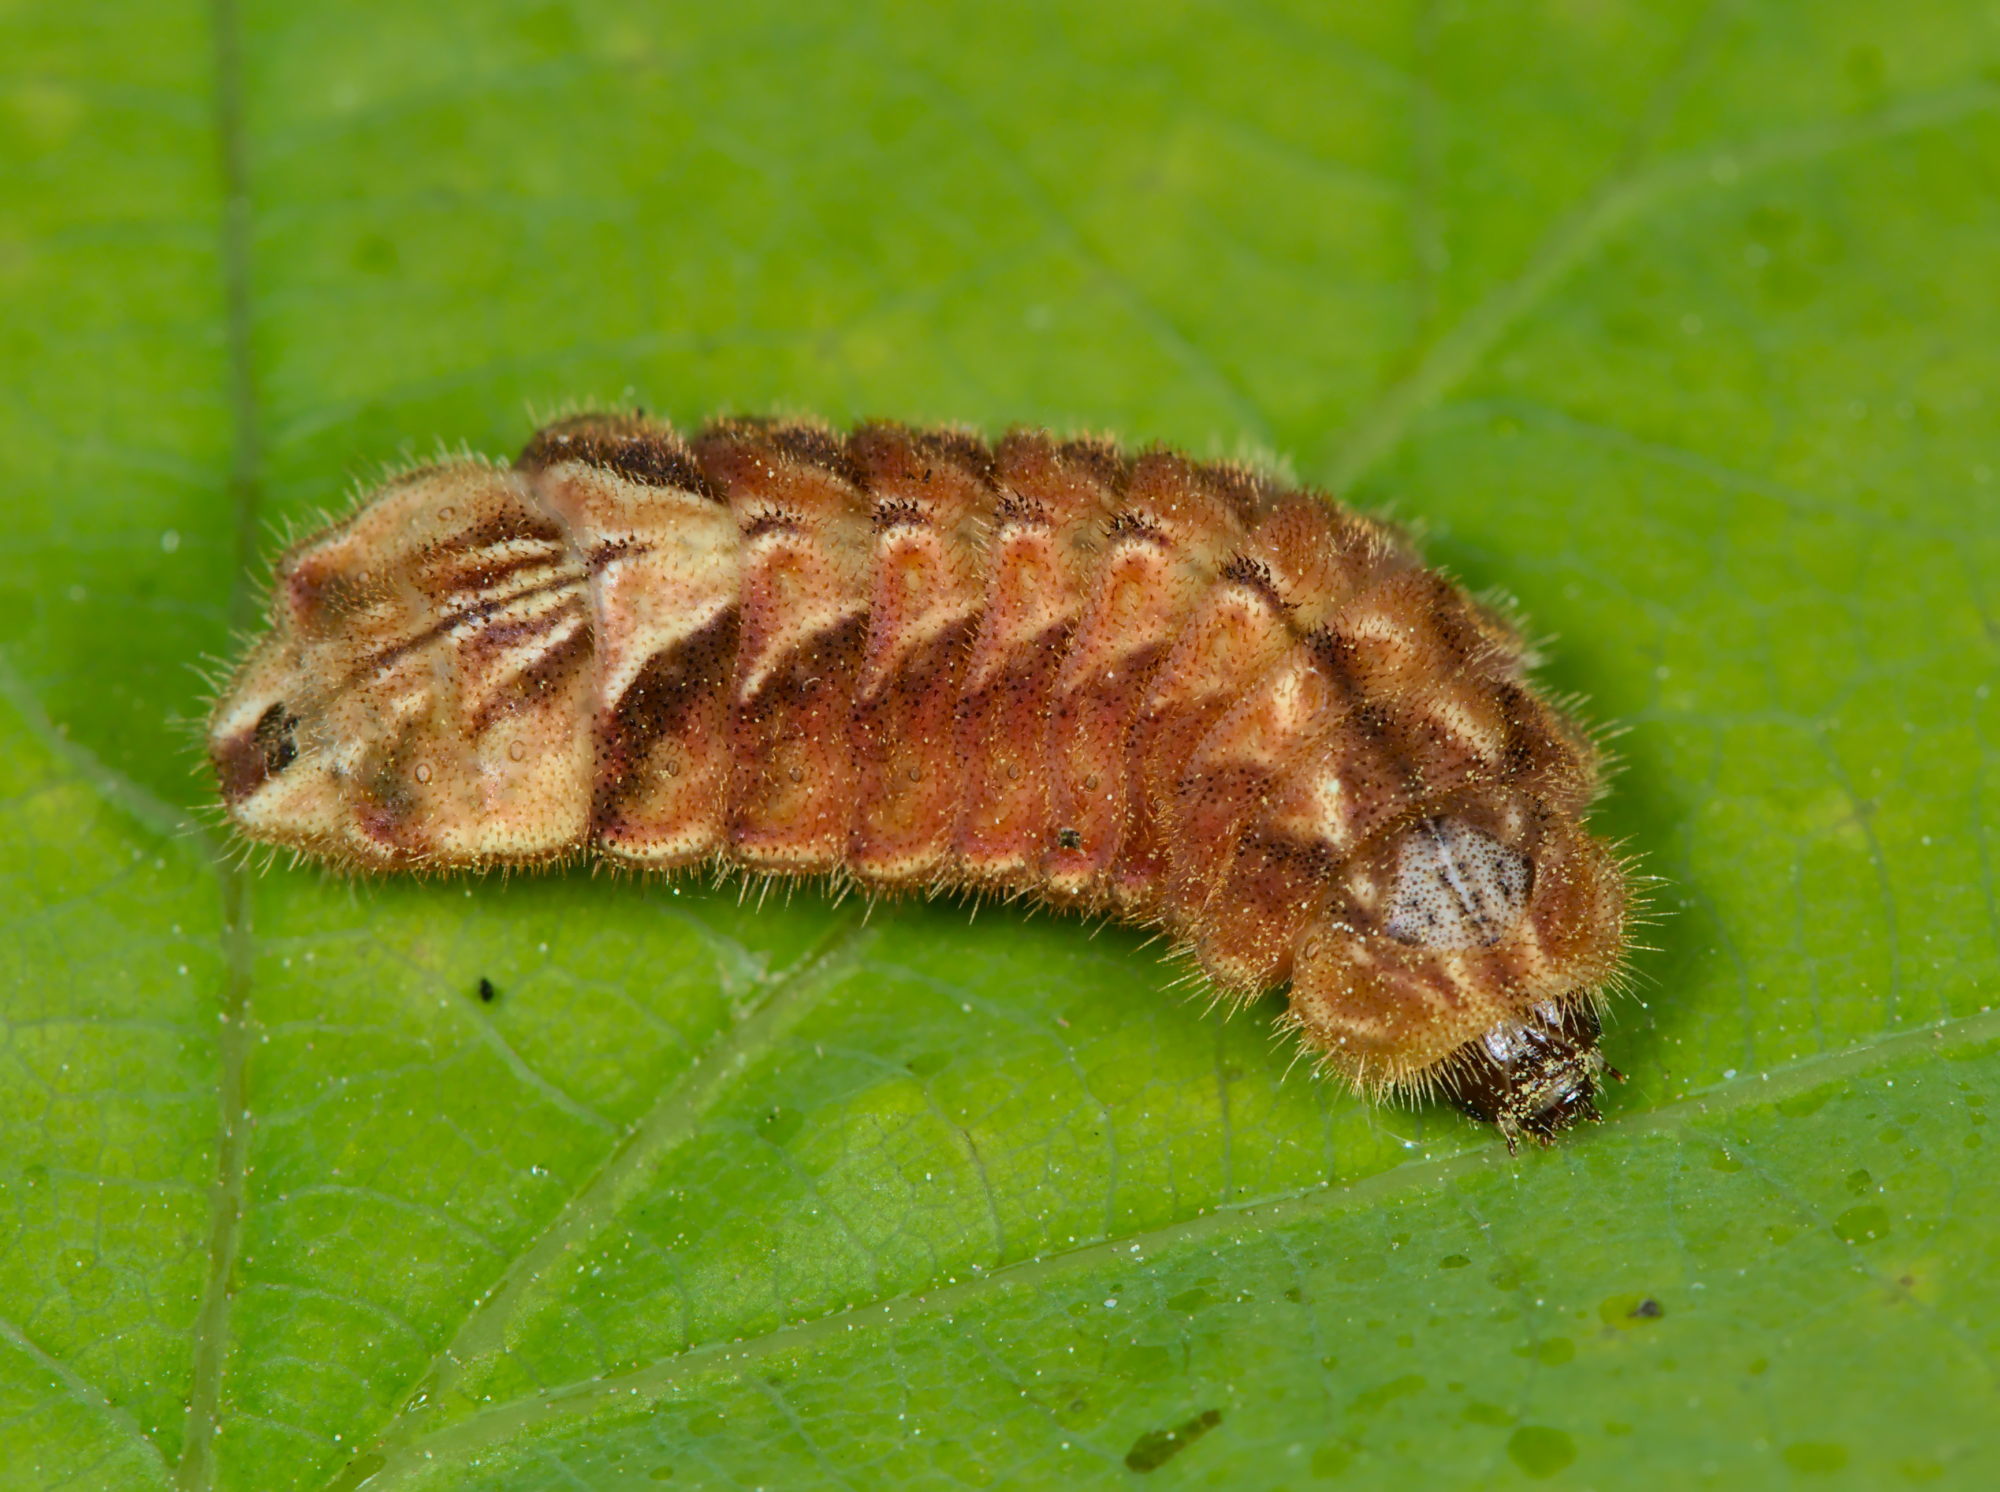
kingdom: Animalia
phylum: Arthropoda
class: Insecta
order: Lepidoptera
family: Lycaenidae
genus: Quercusia
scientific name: Quercusia quercus
